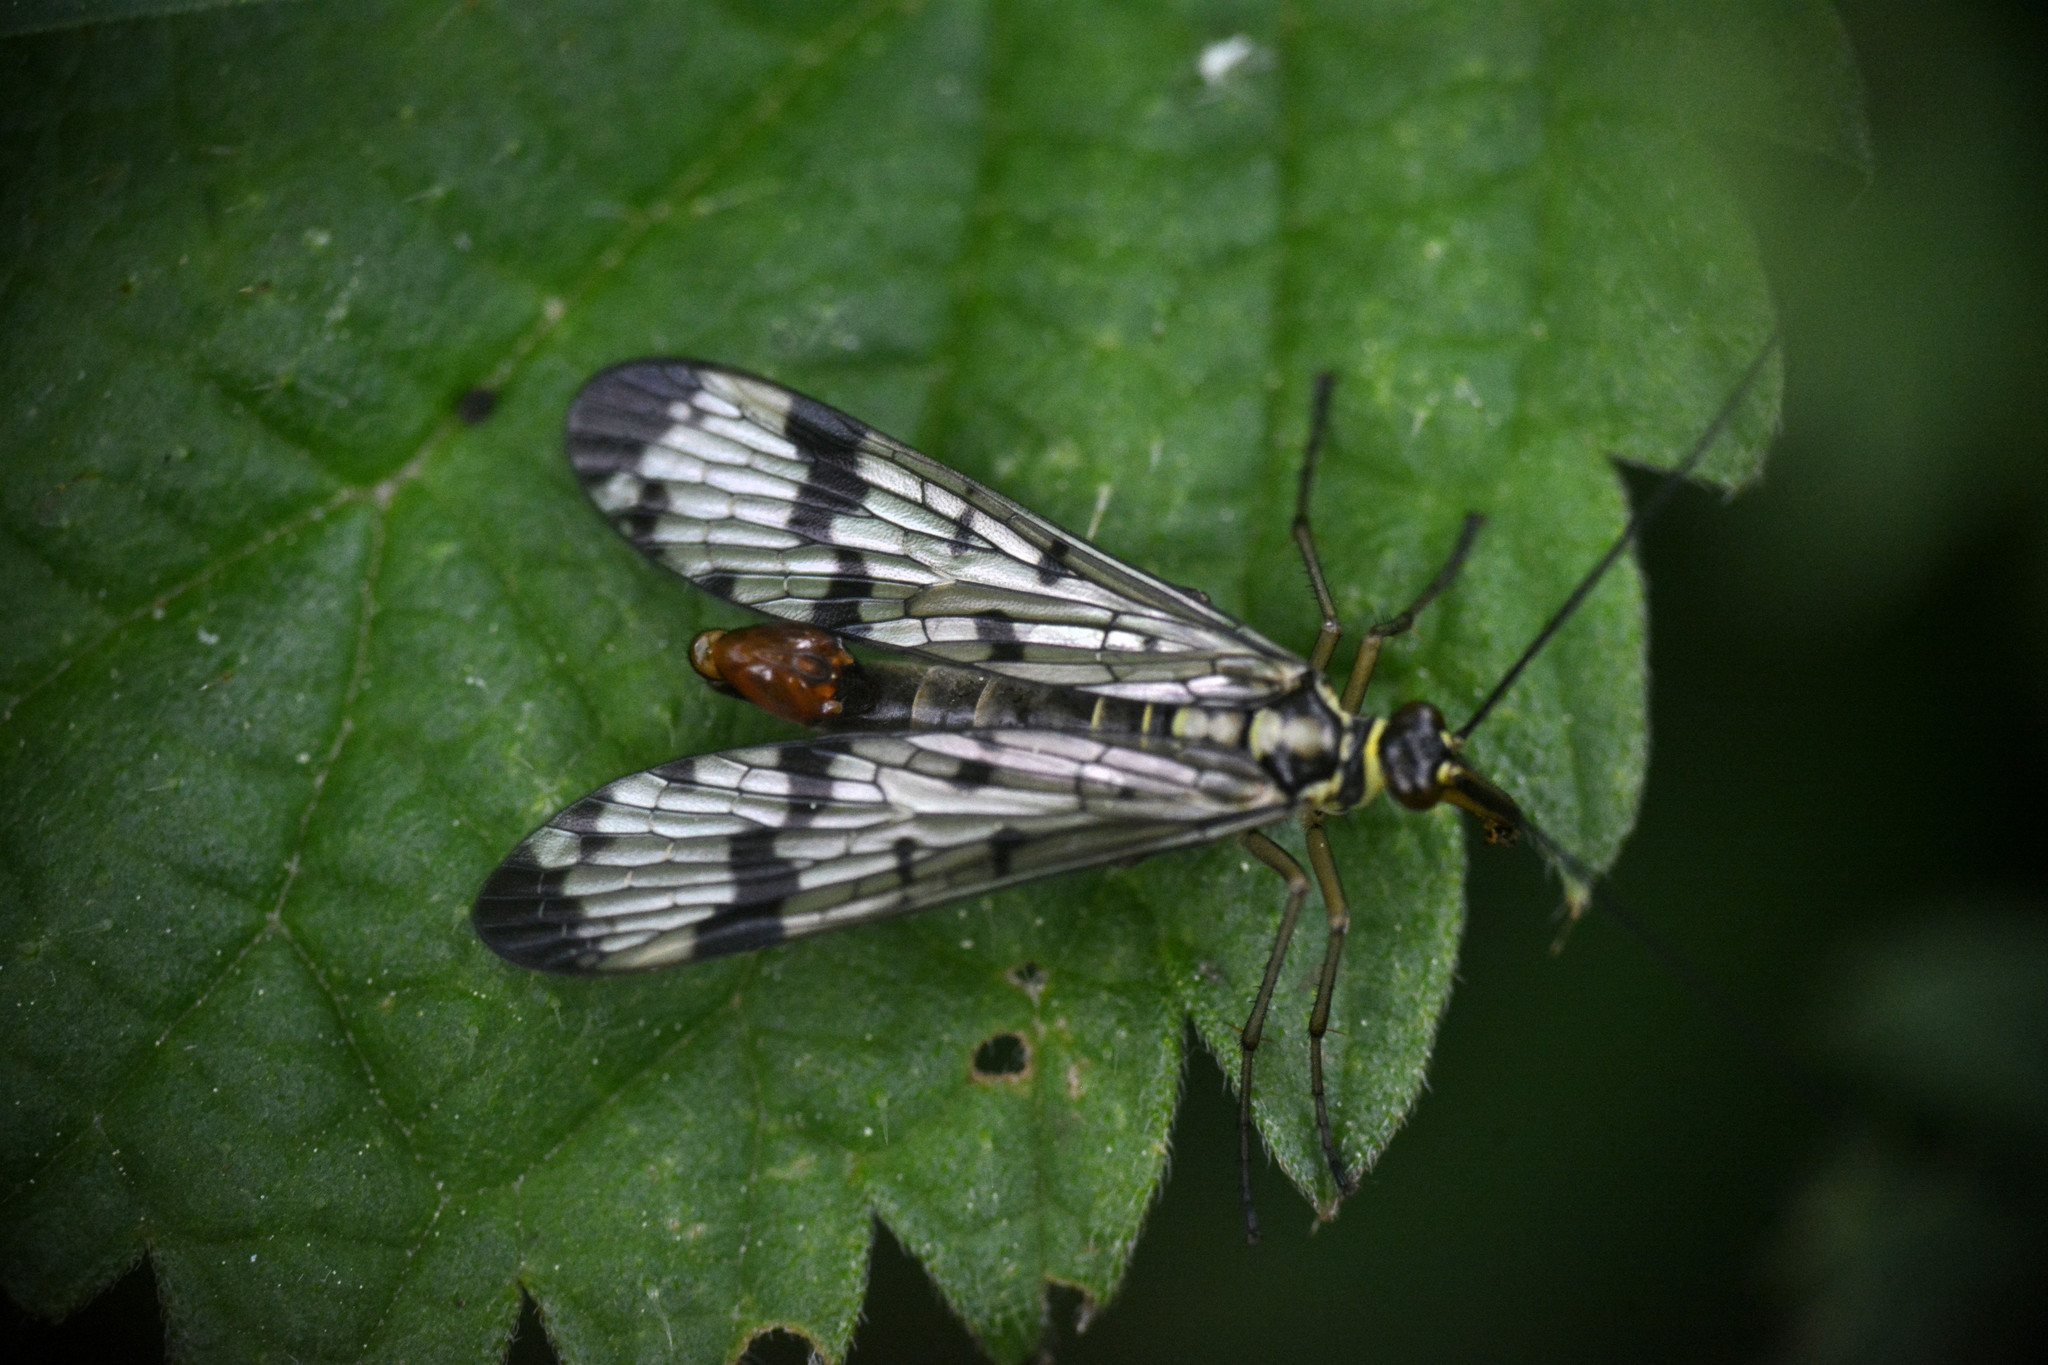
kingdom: Animalia
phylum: Arthropoda
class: Insecta
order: Mecoptera
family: Panorpidae
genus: Panorpa
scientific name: Panorpa communis
